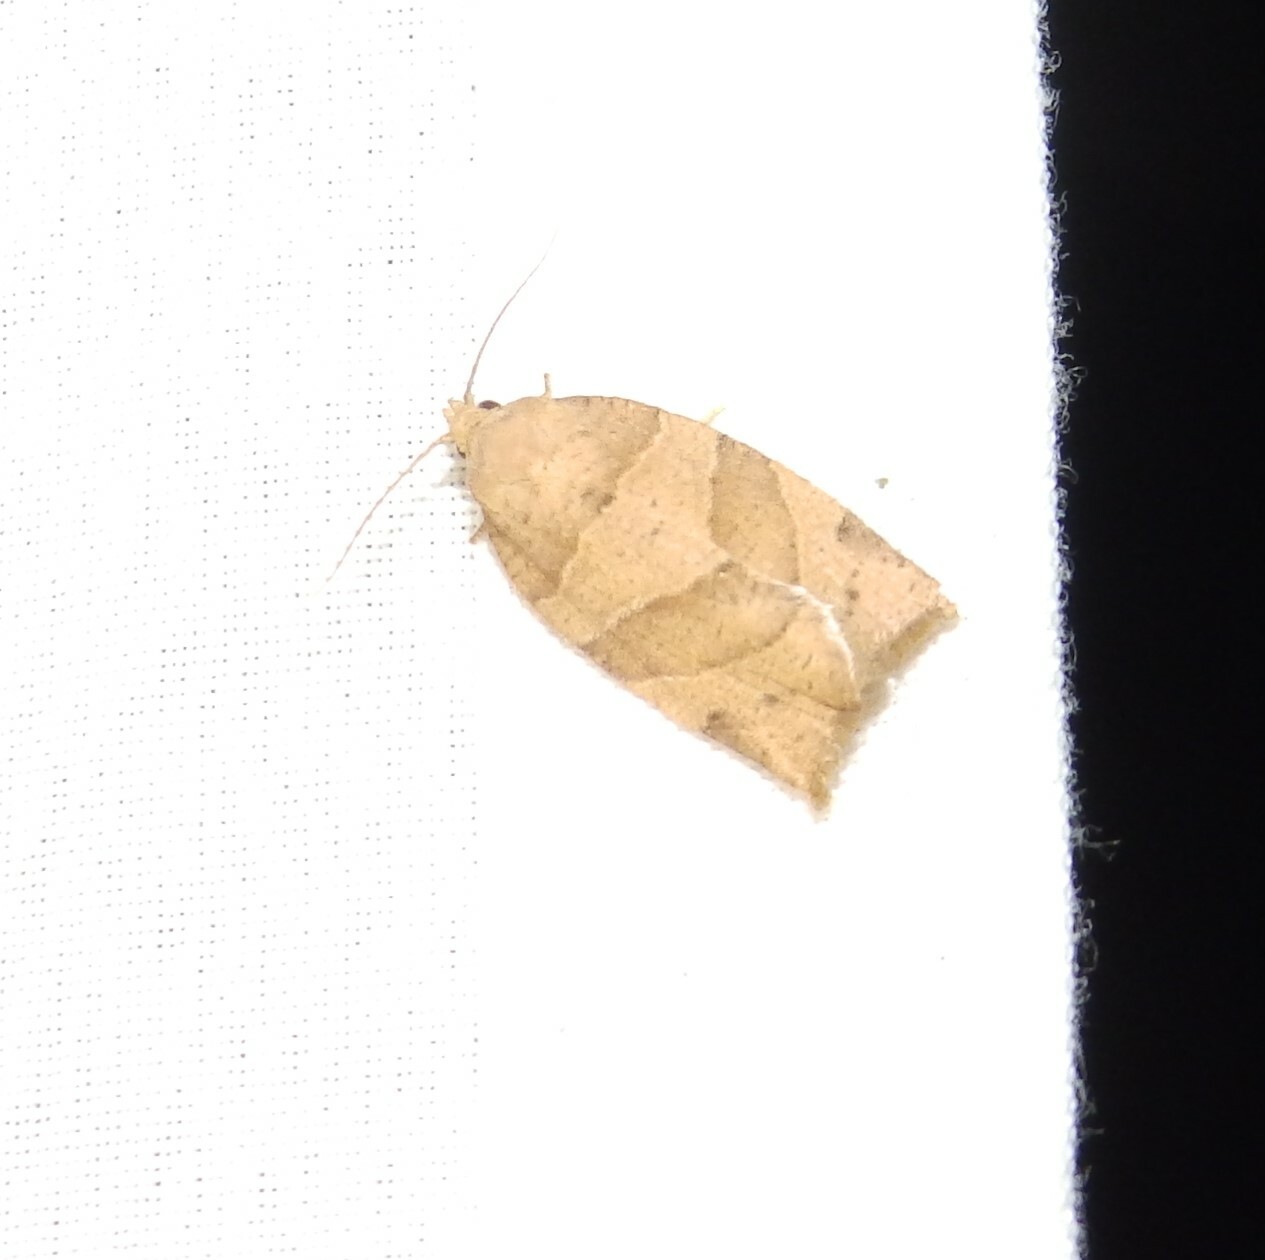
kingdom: Animalia
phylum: Arthropoda
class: Insecta
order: Lepidoptera
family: Tortricidae
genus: Pandemis
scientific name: Pandemis lamprosana
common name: Woodgrain leafroller moth
